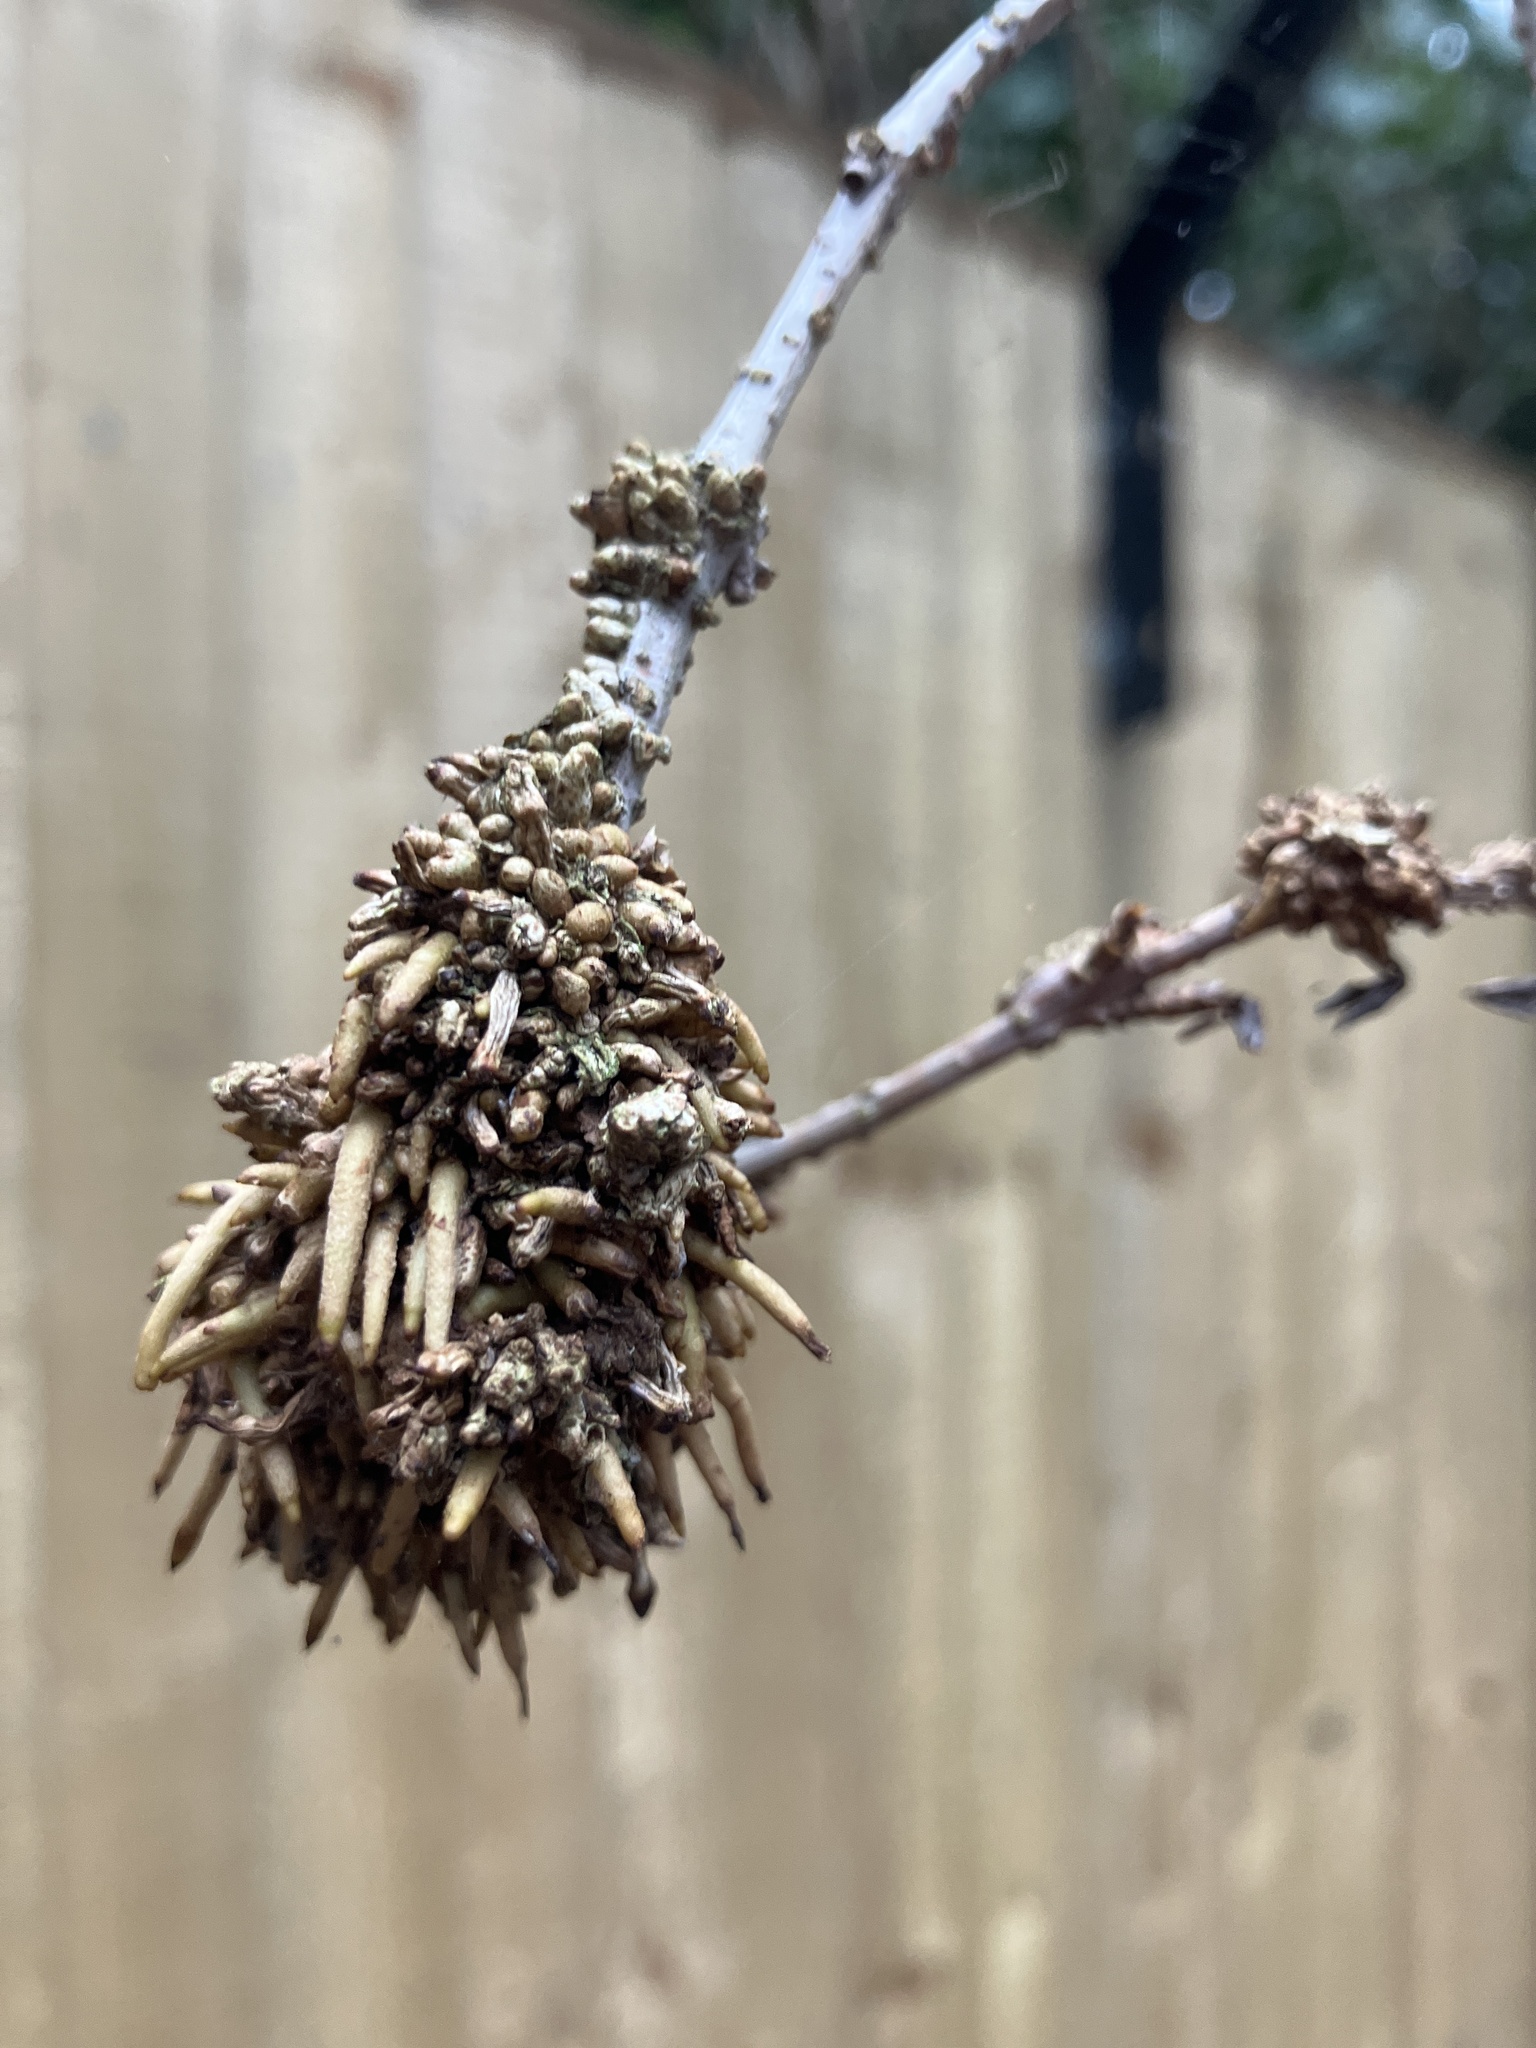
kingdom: Bacteria
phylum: Proteobacteria
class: Gammaproteobacteria
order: Pseudomonadales
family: Pseudomonadaceae
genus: Pseudomonas
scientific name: Pseudomonas
